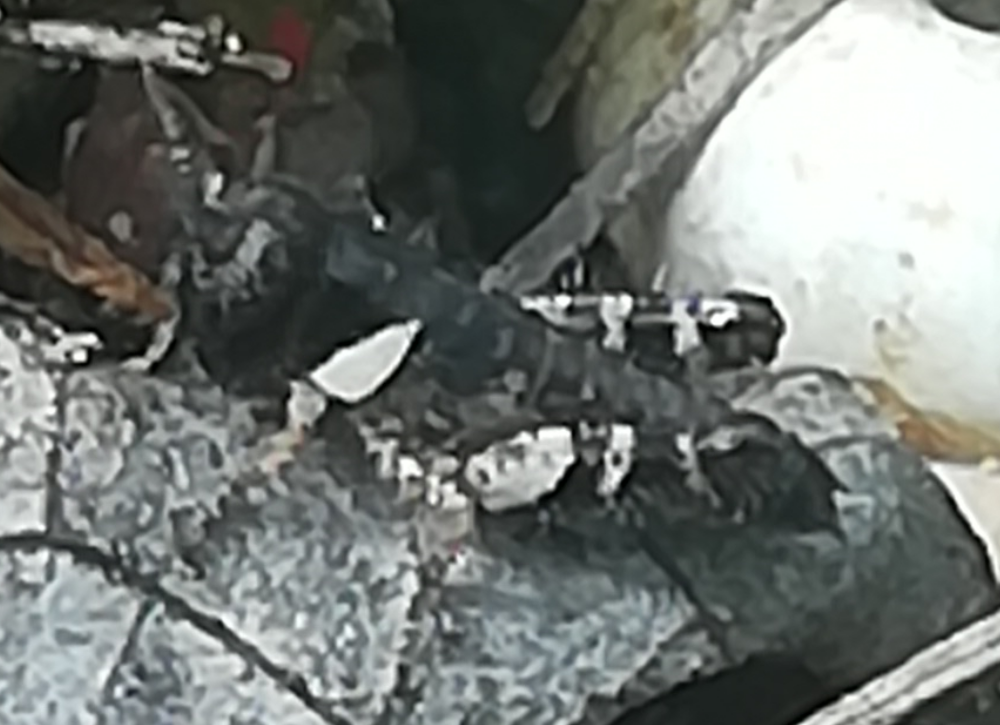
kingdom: Animalia
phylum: Arthropoda
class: Insecta
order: Orthoptera
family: Acrididae
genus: Calliptamus
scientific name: Calliptamus italicus
